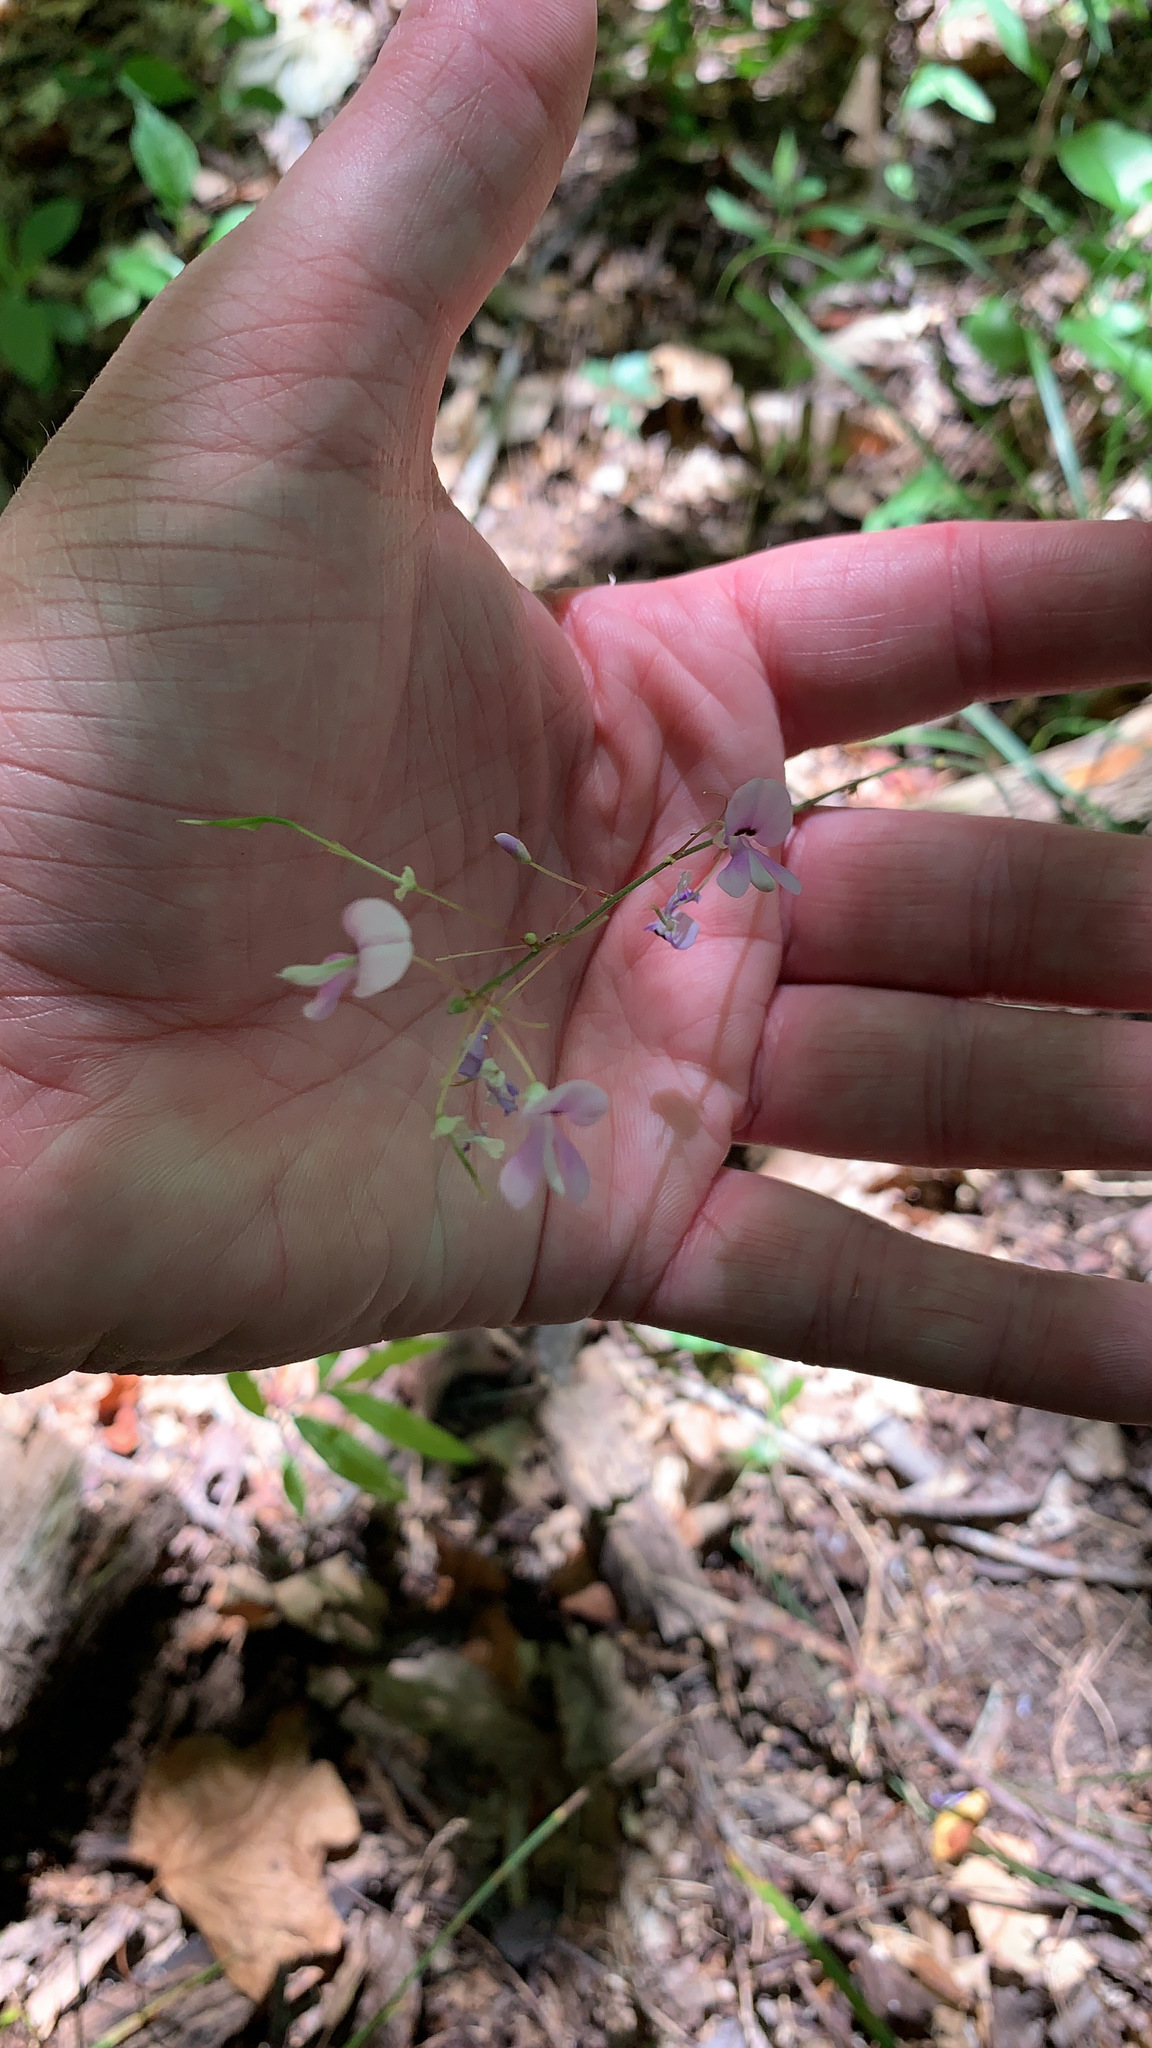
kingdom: Plantae
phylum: Tracheophyta
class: Magnoliopsida
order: Fabales
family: Fabaceae
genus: Hylodesmum
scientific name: Hylodesmum nudiflorum
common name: Bare-stemmed tick-trefoil
